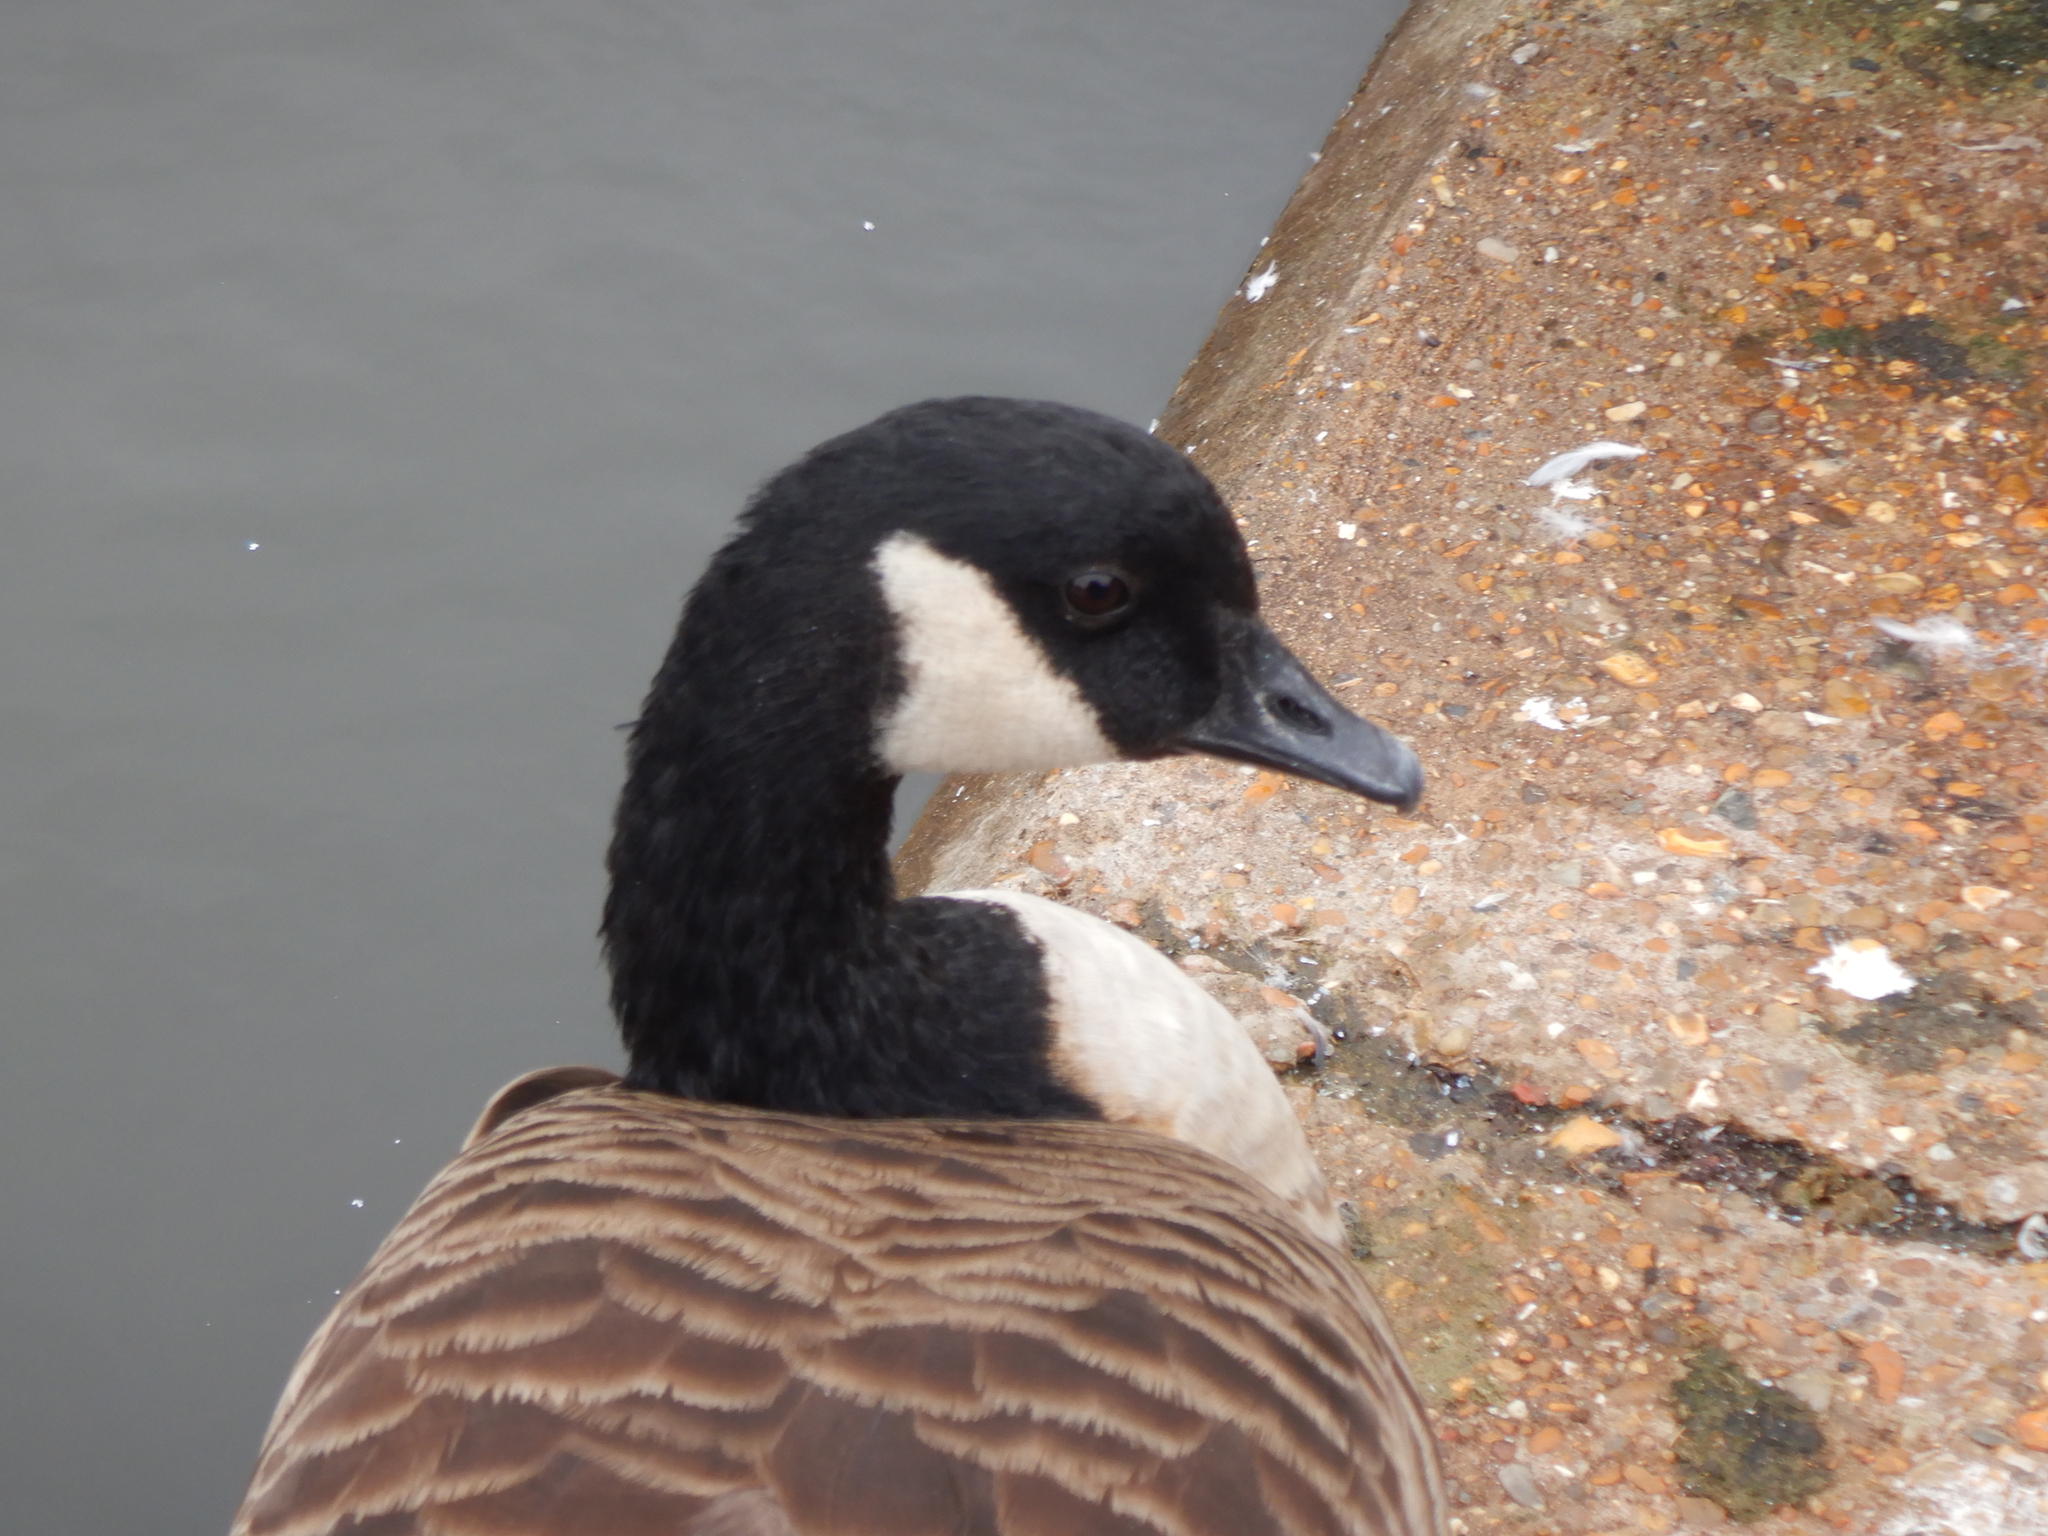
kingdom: Animalia
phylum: Chordata
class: Aves
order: Anseriformes
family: Anatidae
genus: Branta
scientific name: Branta canadensis
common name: Canada goose
